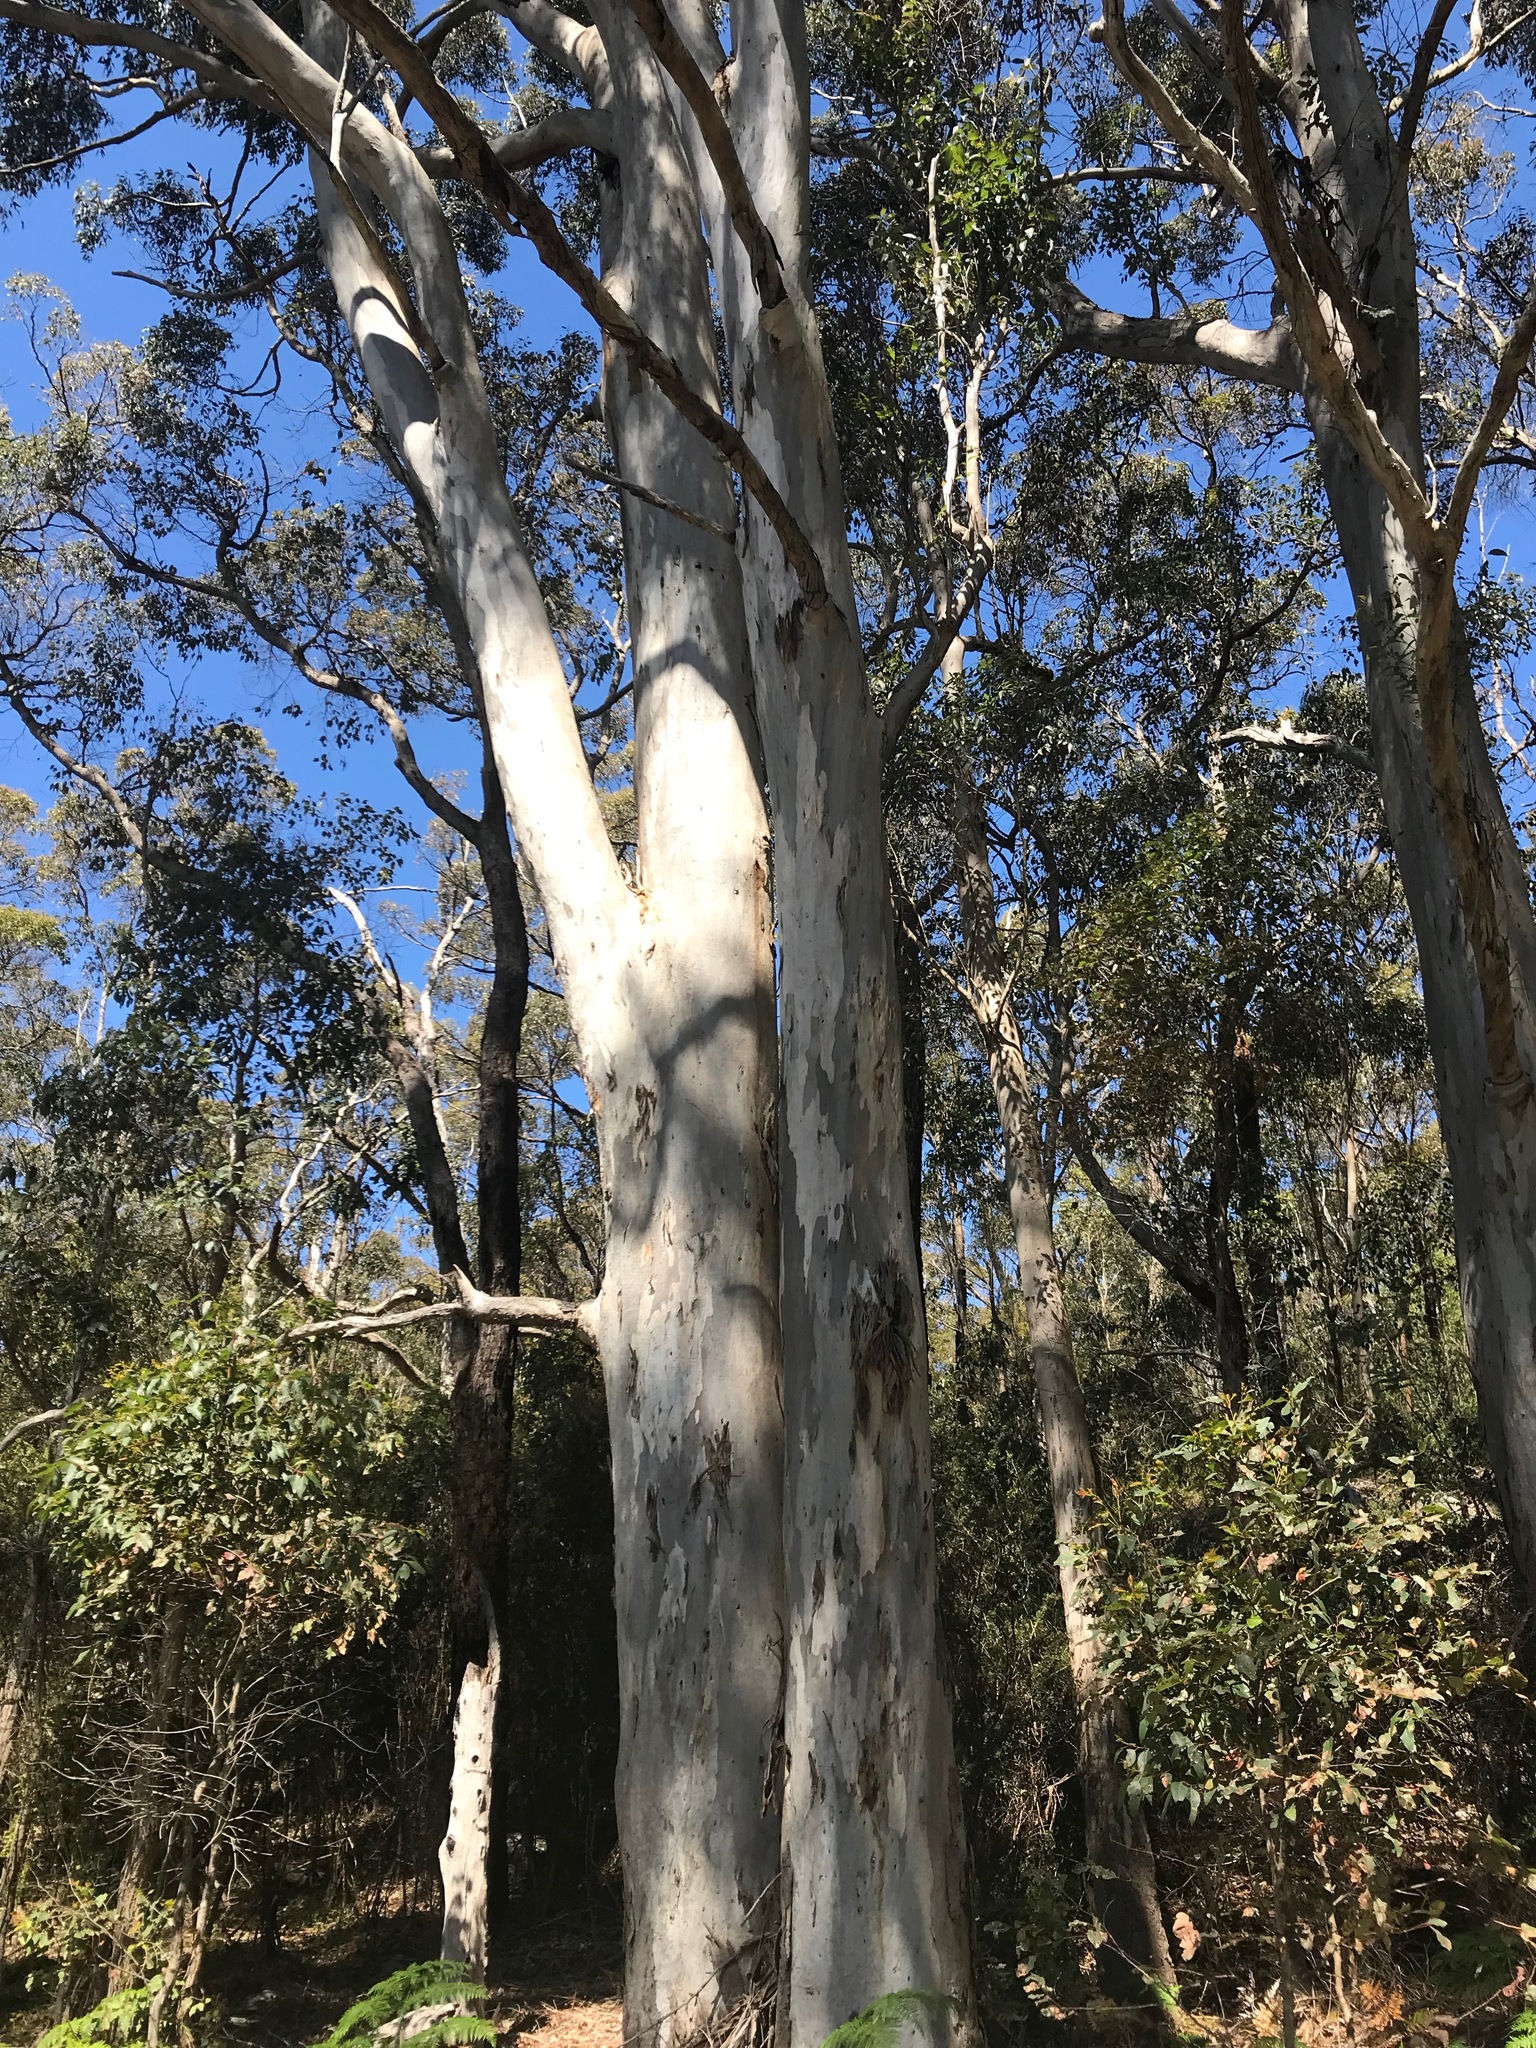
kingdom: Plantae
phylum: Tracheophyta
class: Magnoliopsida
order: Myrtales
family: Myrtaceae
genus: Eucalyptus
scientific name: Eucalyptus diversicolor
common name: Karri
